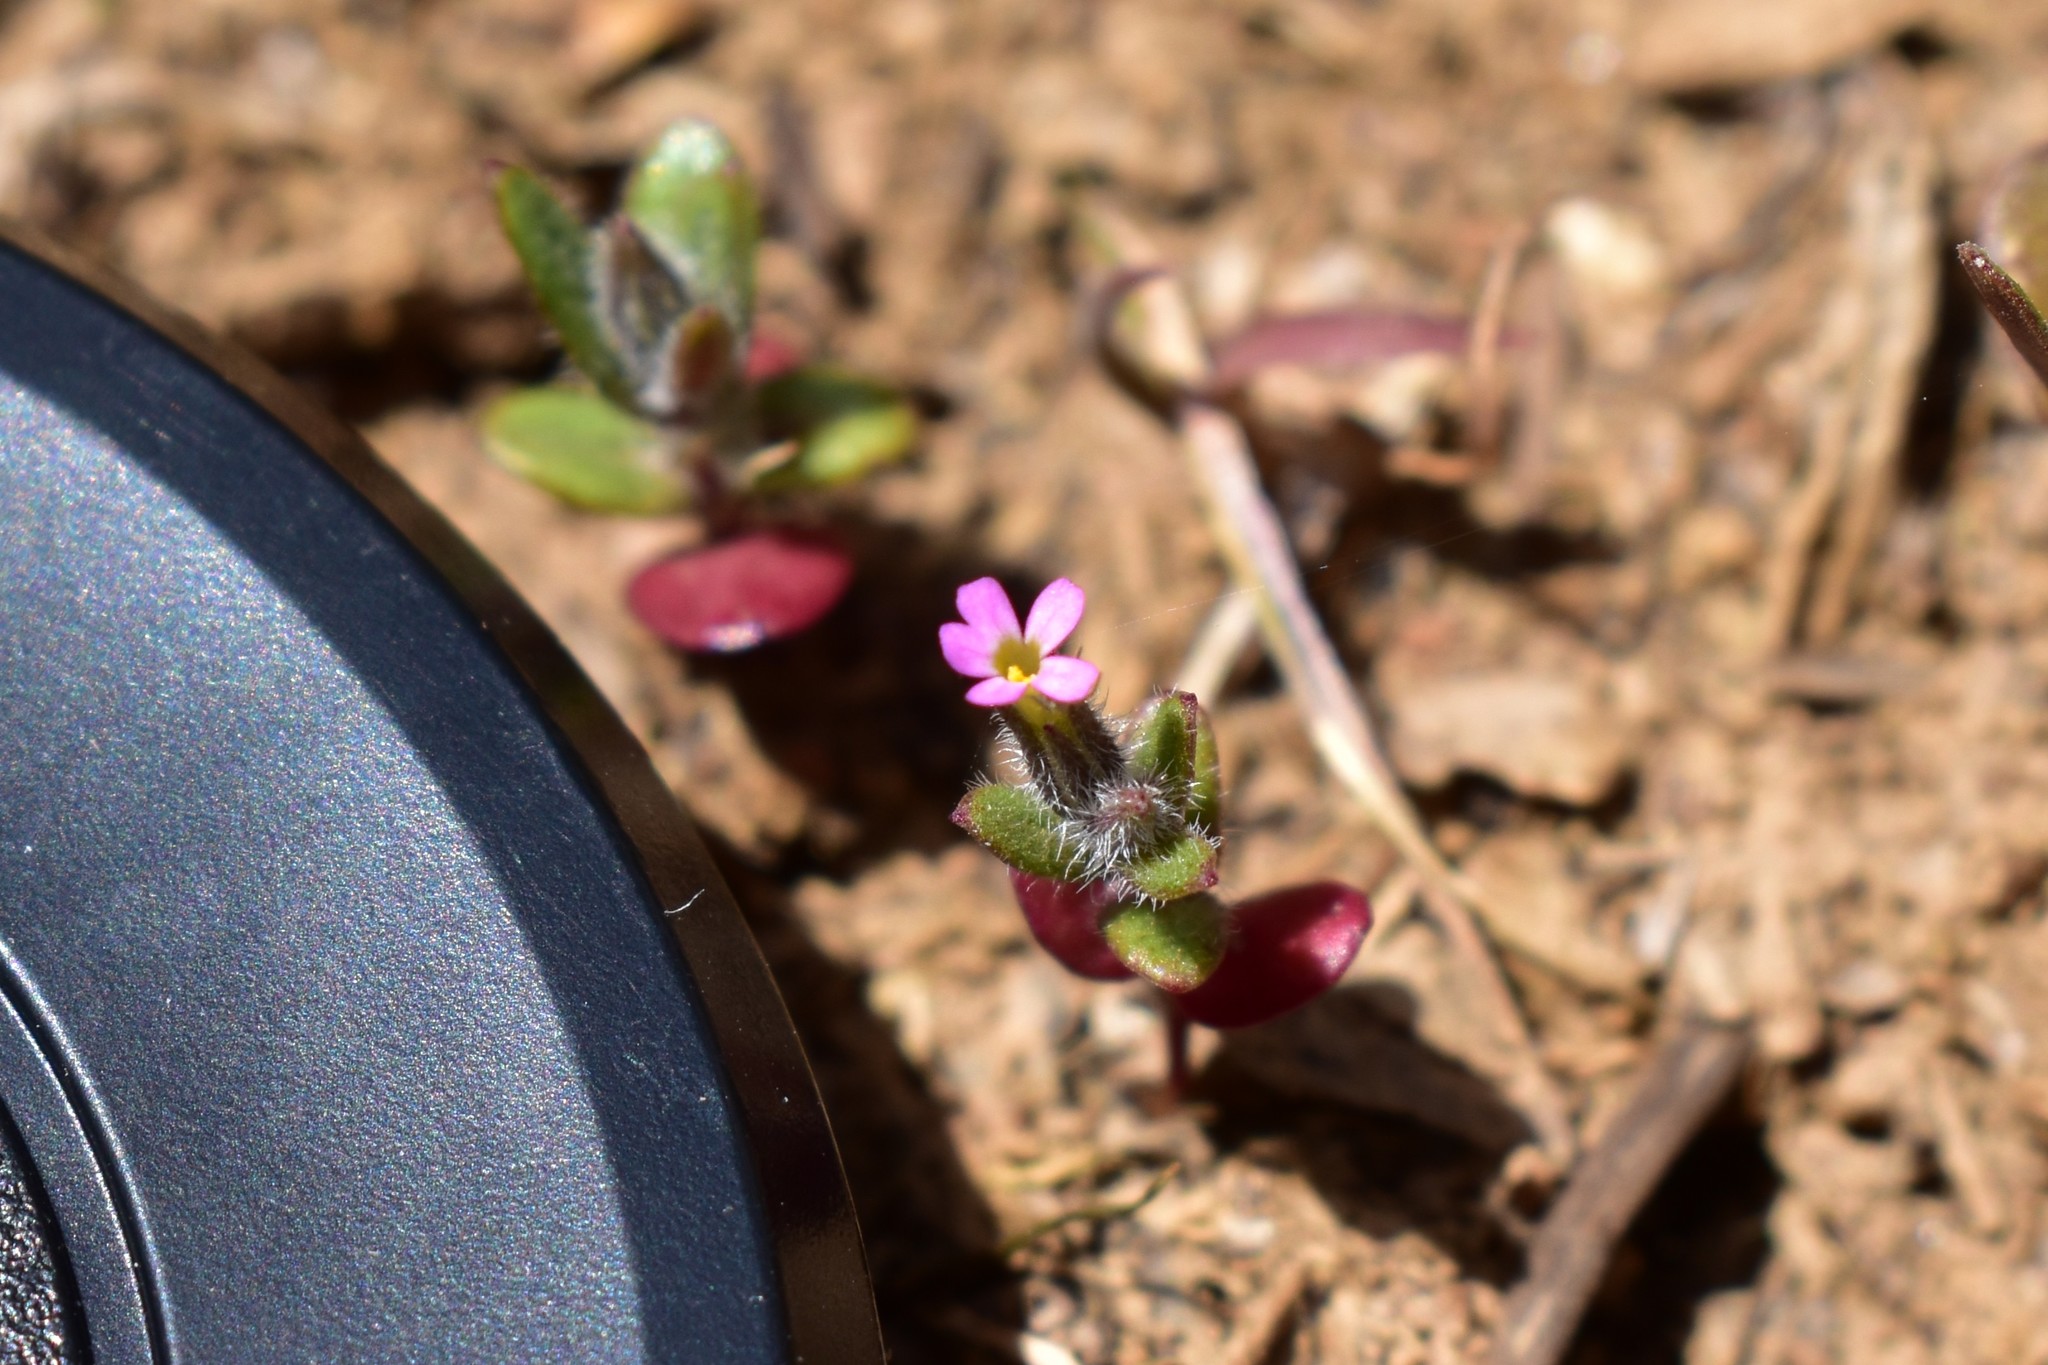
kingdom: Plantae
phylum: Tracheophyta
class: Magnoliopsida
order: Ericales
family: Polemoniaceae
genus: Phlox
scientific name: Phlox gracilis
